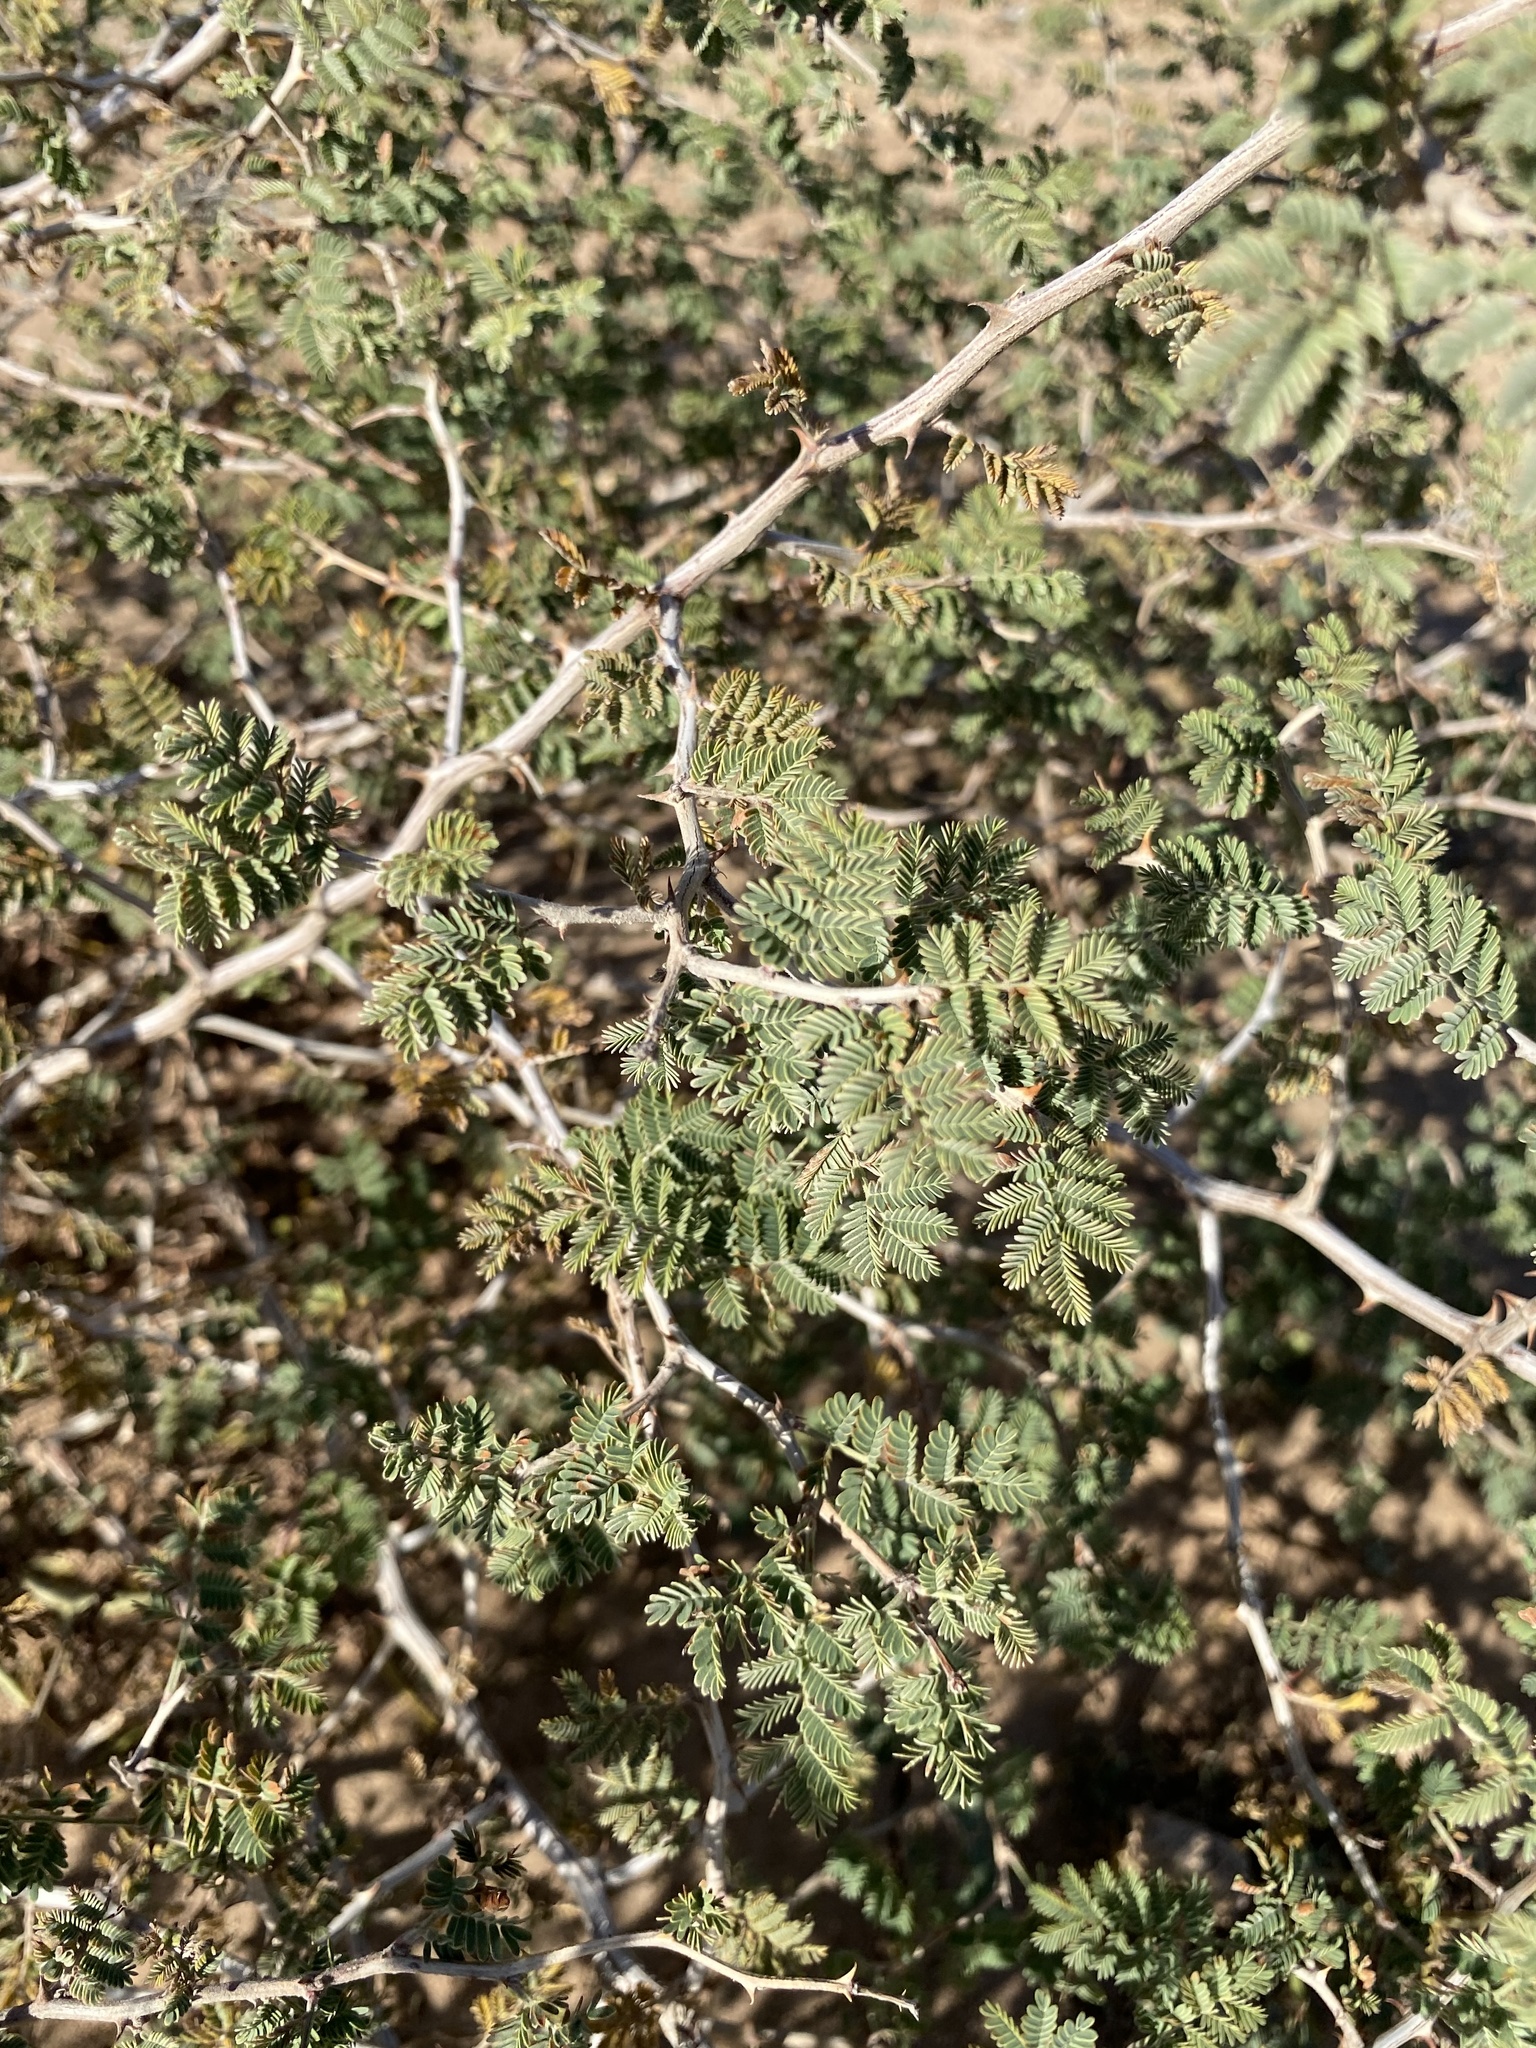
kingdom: Plantae
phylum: Tracheophyta
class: Magnoliopsida
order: Fabales
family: Fabaceae
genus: Mimosa
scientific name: Mimosa aculeaticarpa
